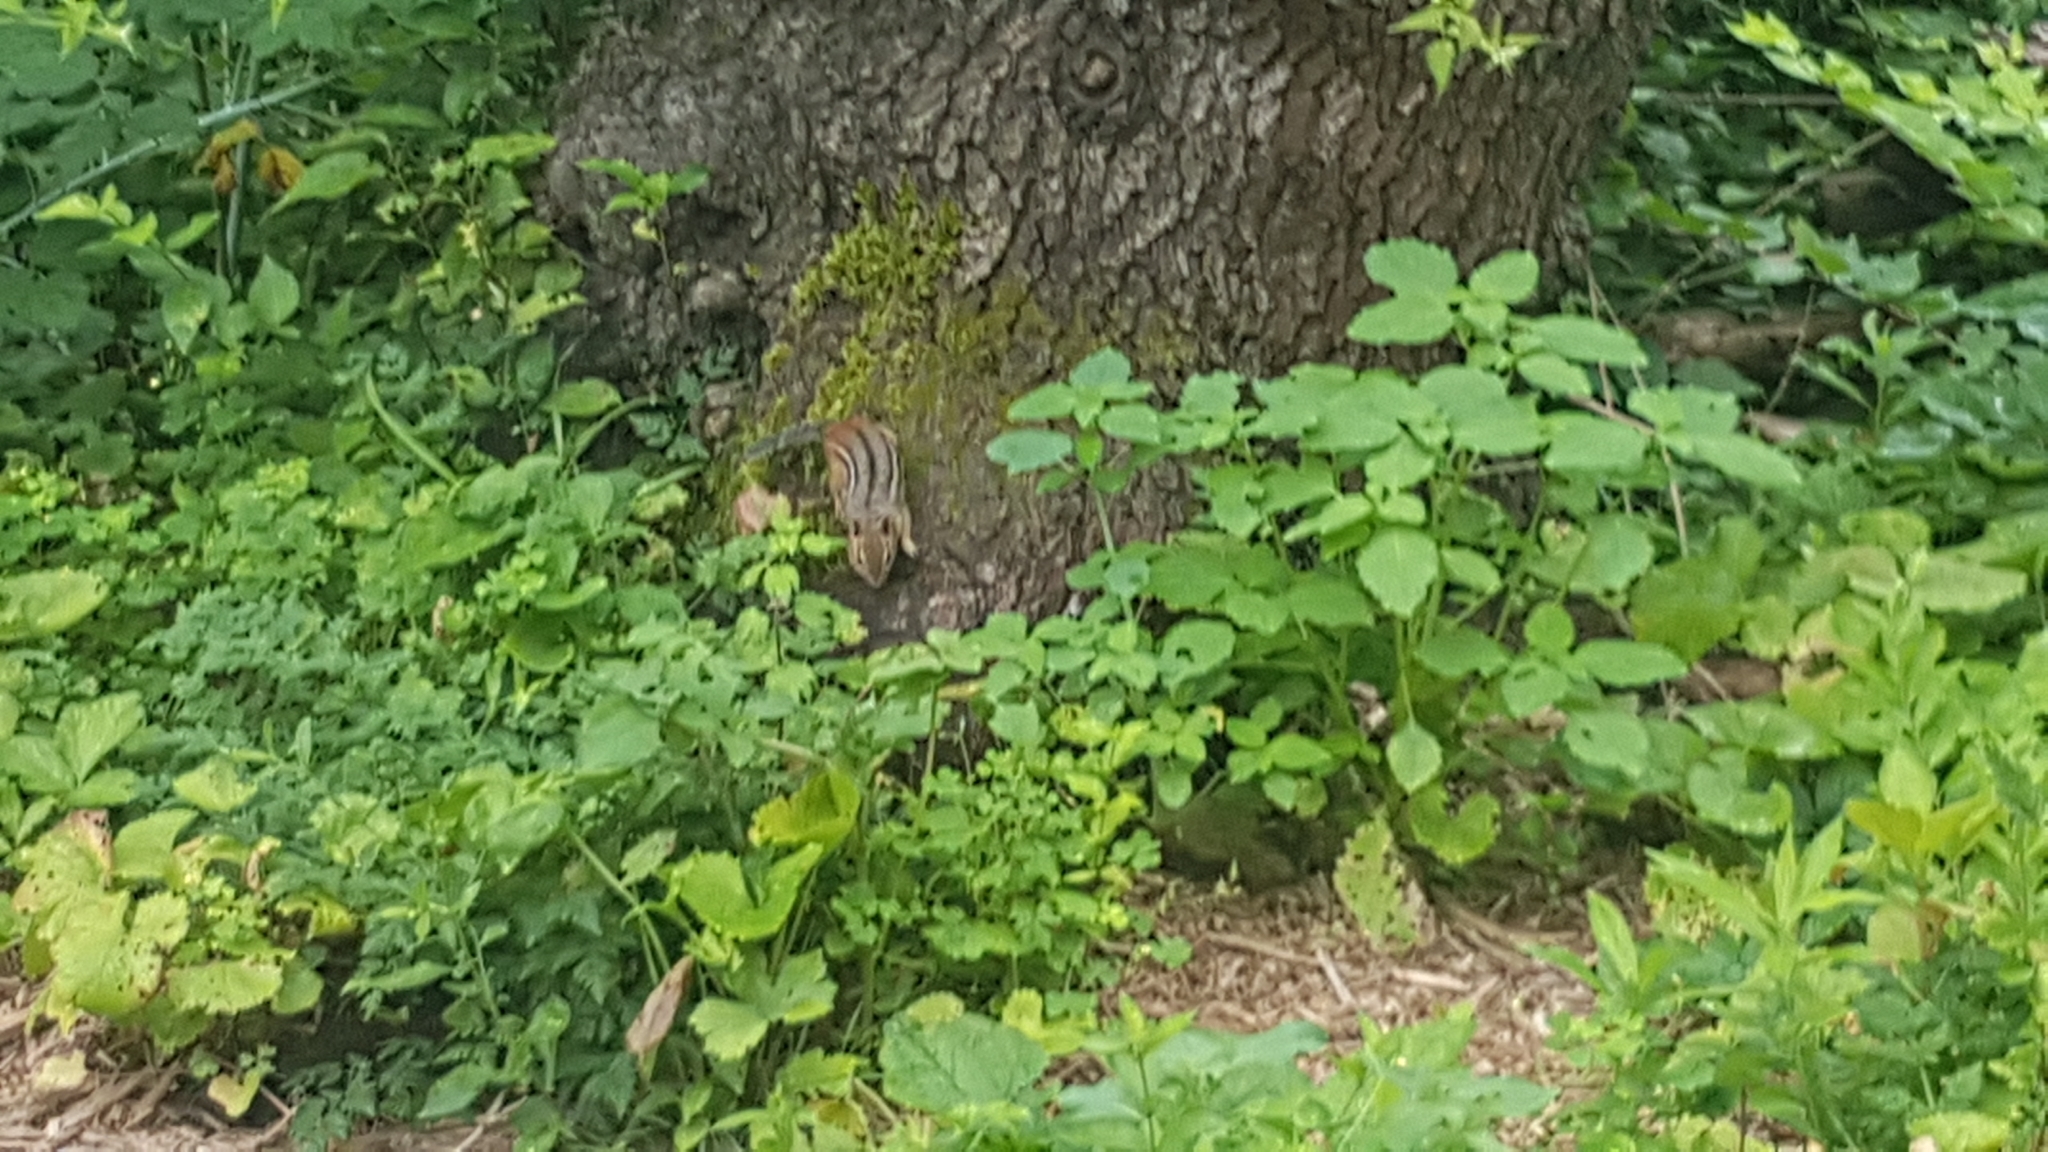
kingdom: Animalia
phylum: Chordata
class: Mammalia
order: Rodentia
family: Sciuridae
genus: Tamias
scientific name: Tamias striatus
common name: Eastern chipmunk
